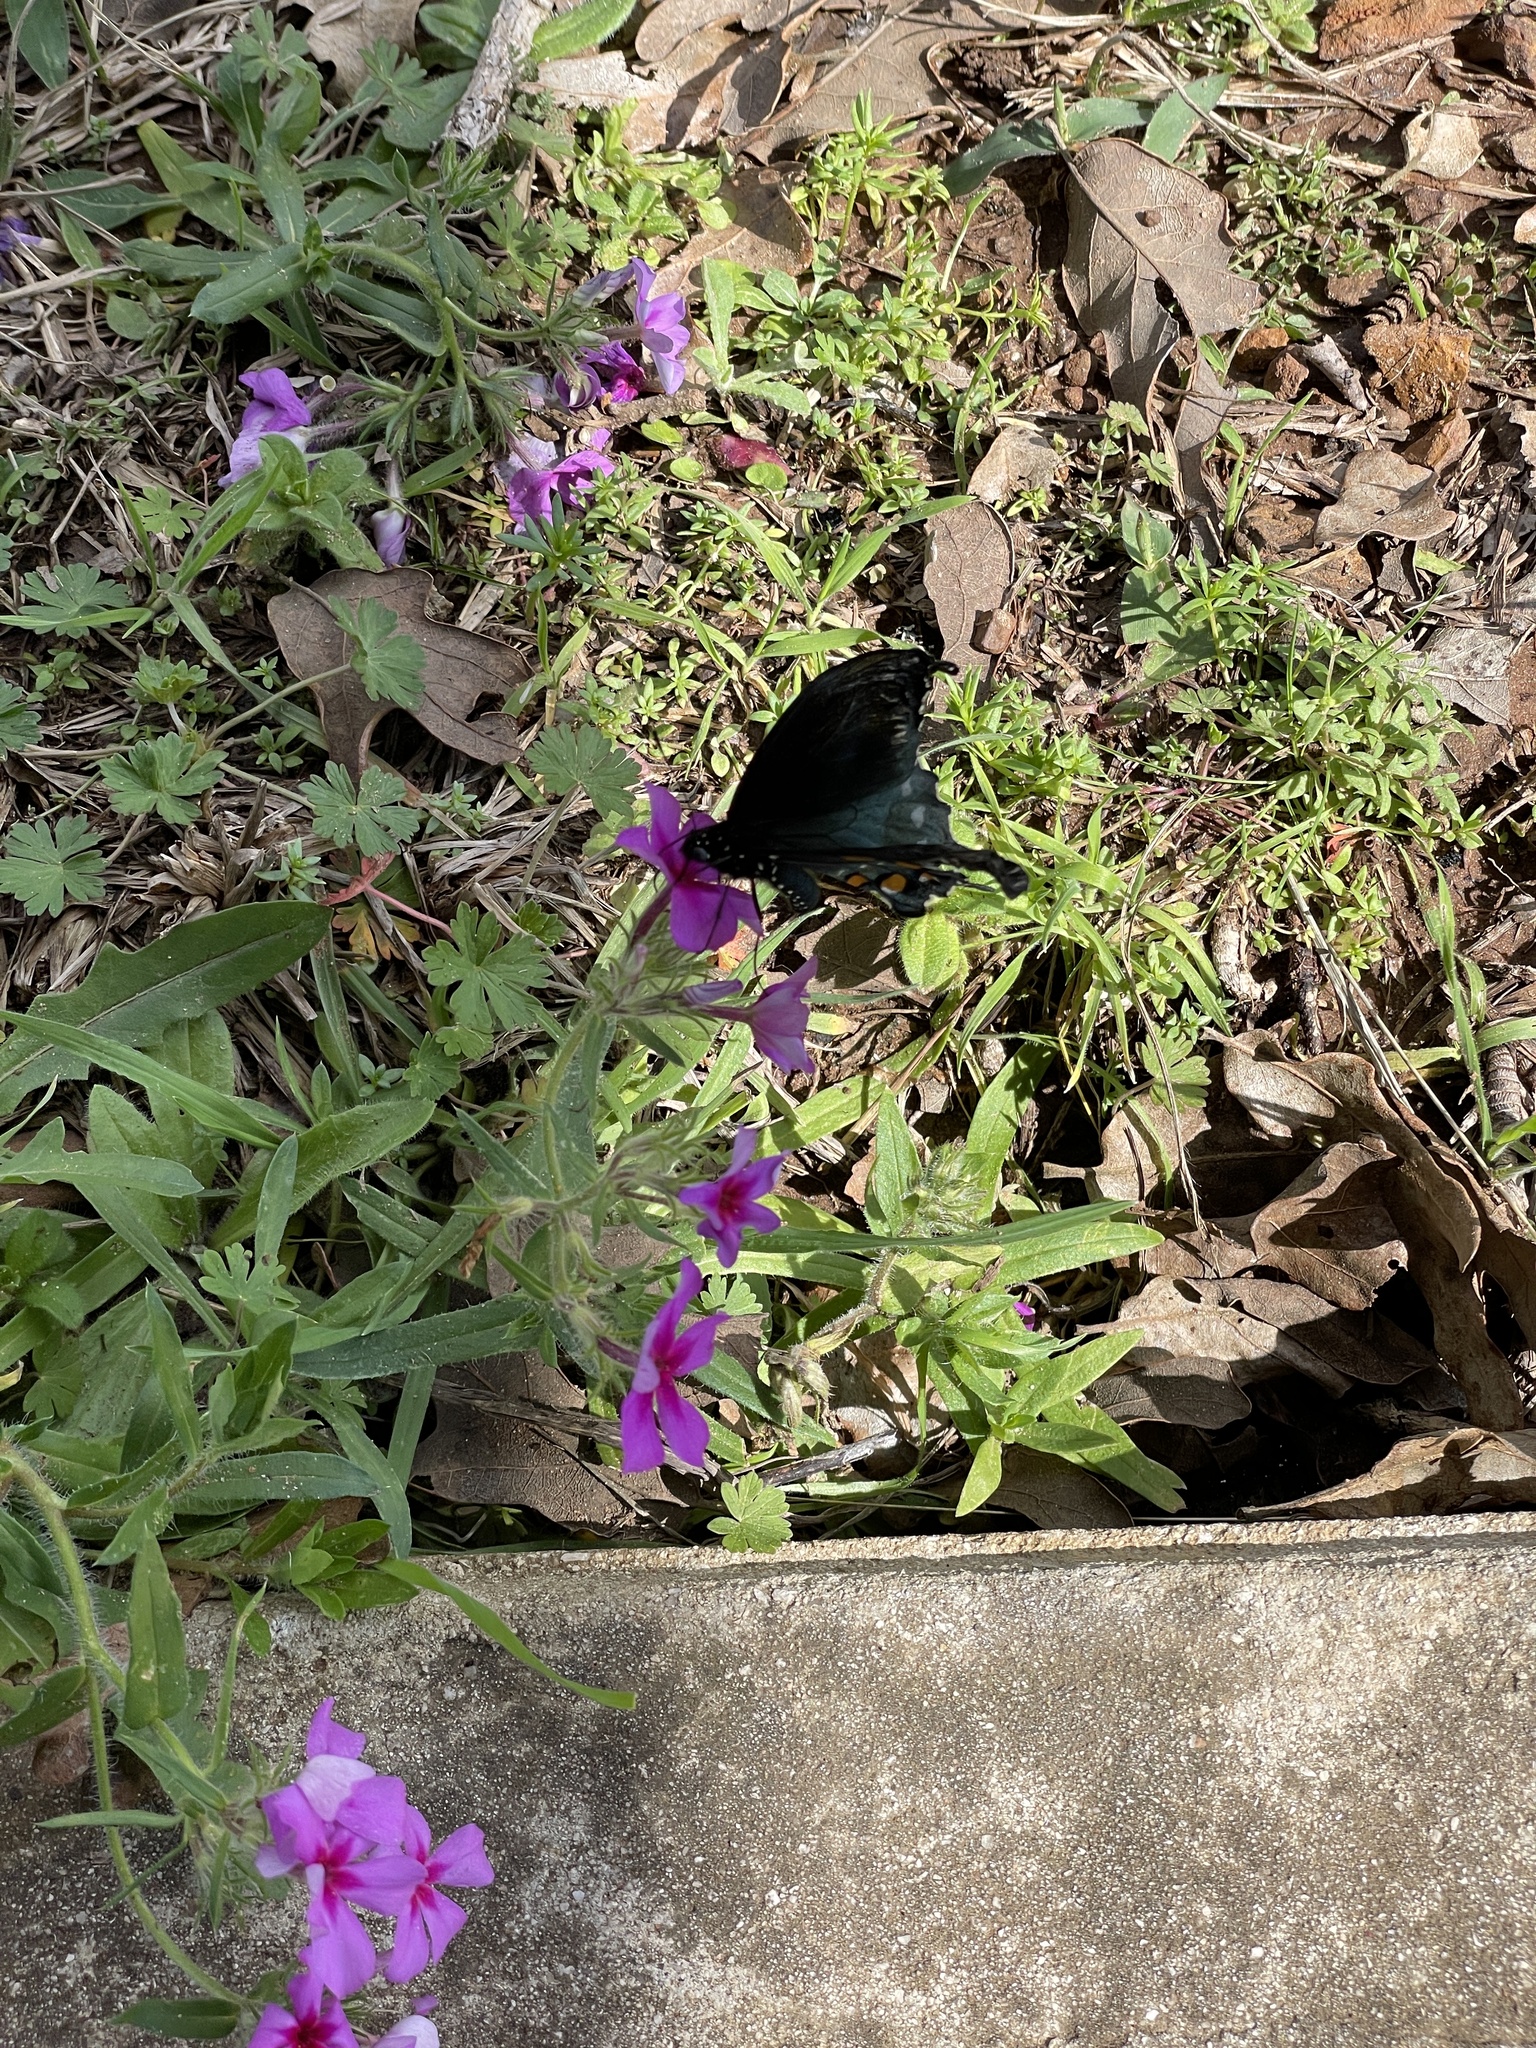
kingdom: Animalia
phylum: Arthropoda
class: Insecta
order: Lepidoptera
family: Papilionidae
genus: Battus
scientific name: Battus philenor
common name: Pipevine swallowtail
